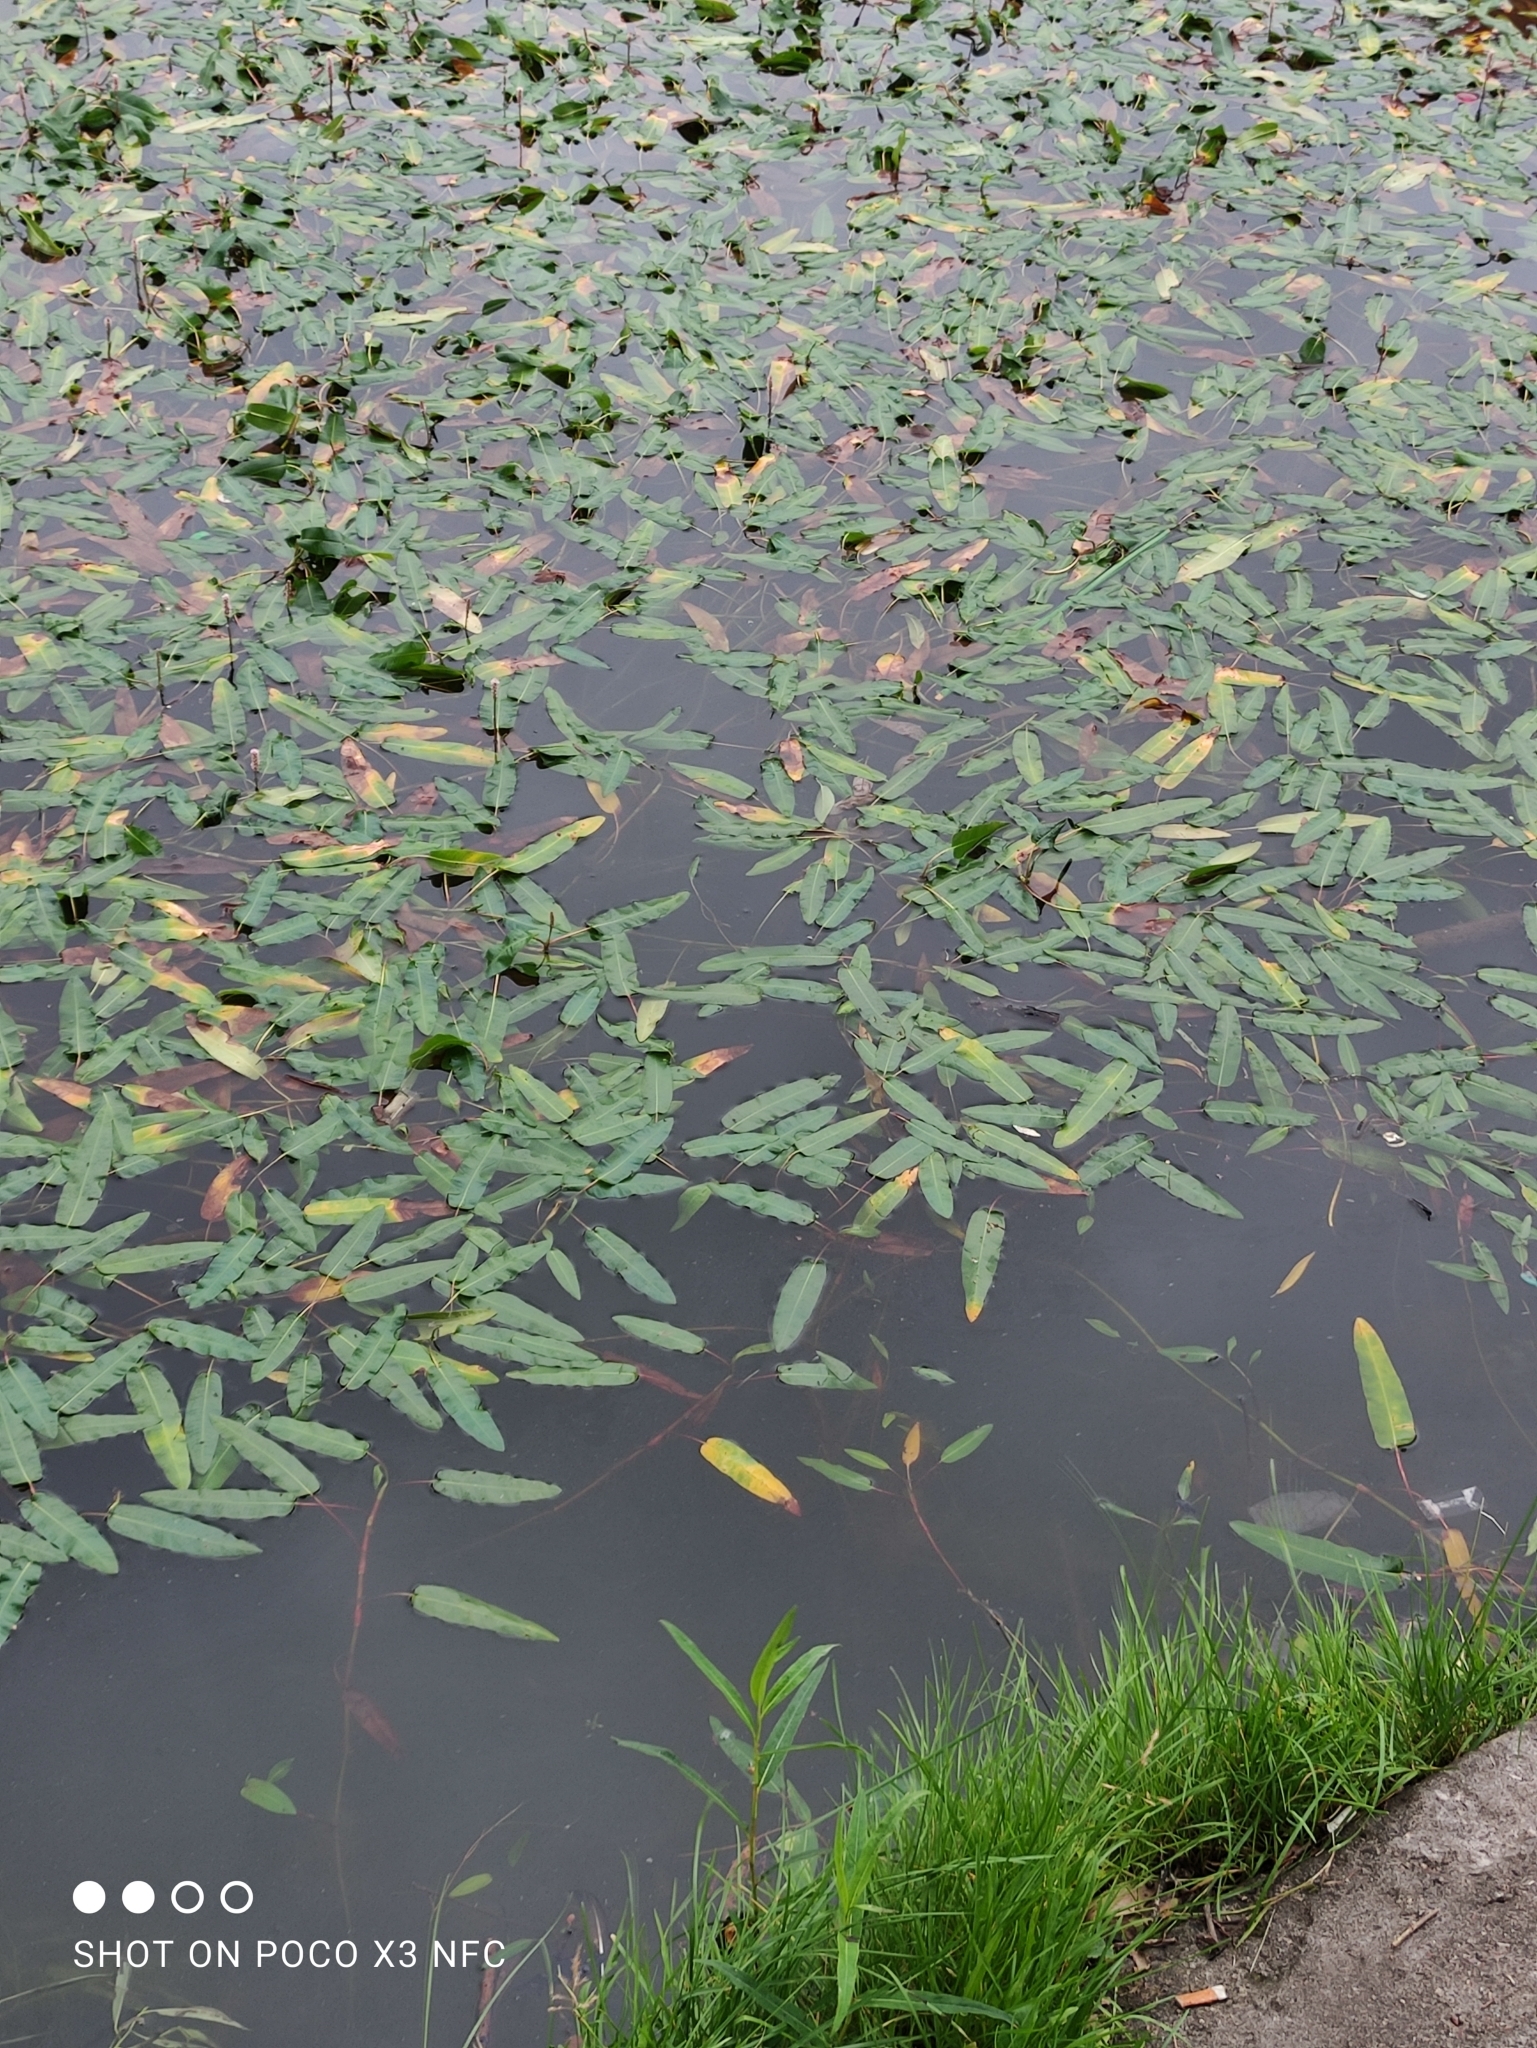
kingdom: Plantae
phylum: Tracheophyta
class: Magnoliopsida
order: Caryophyllales
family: Polygonaceae
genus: Persicaria
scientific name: Persicaria amphibia
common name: Amphibious bistort
